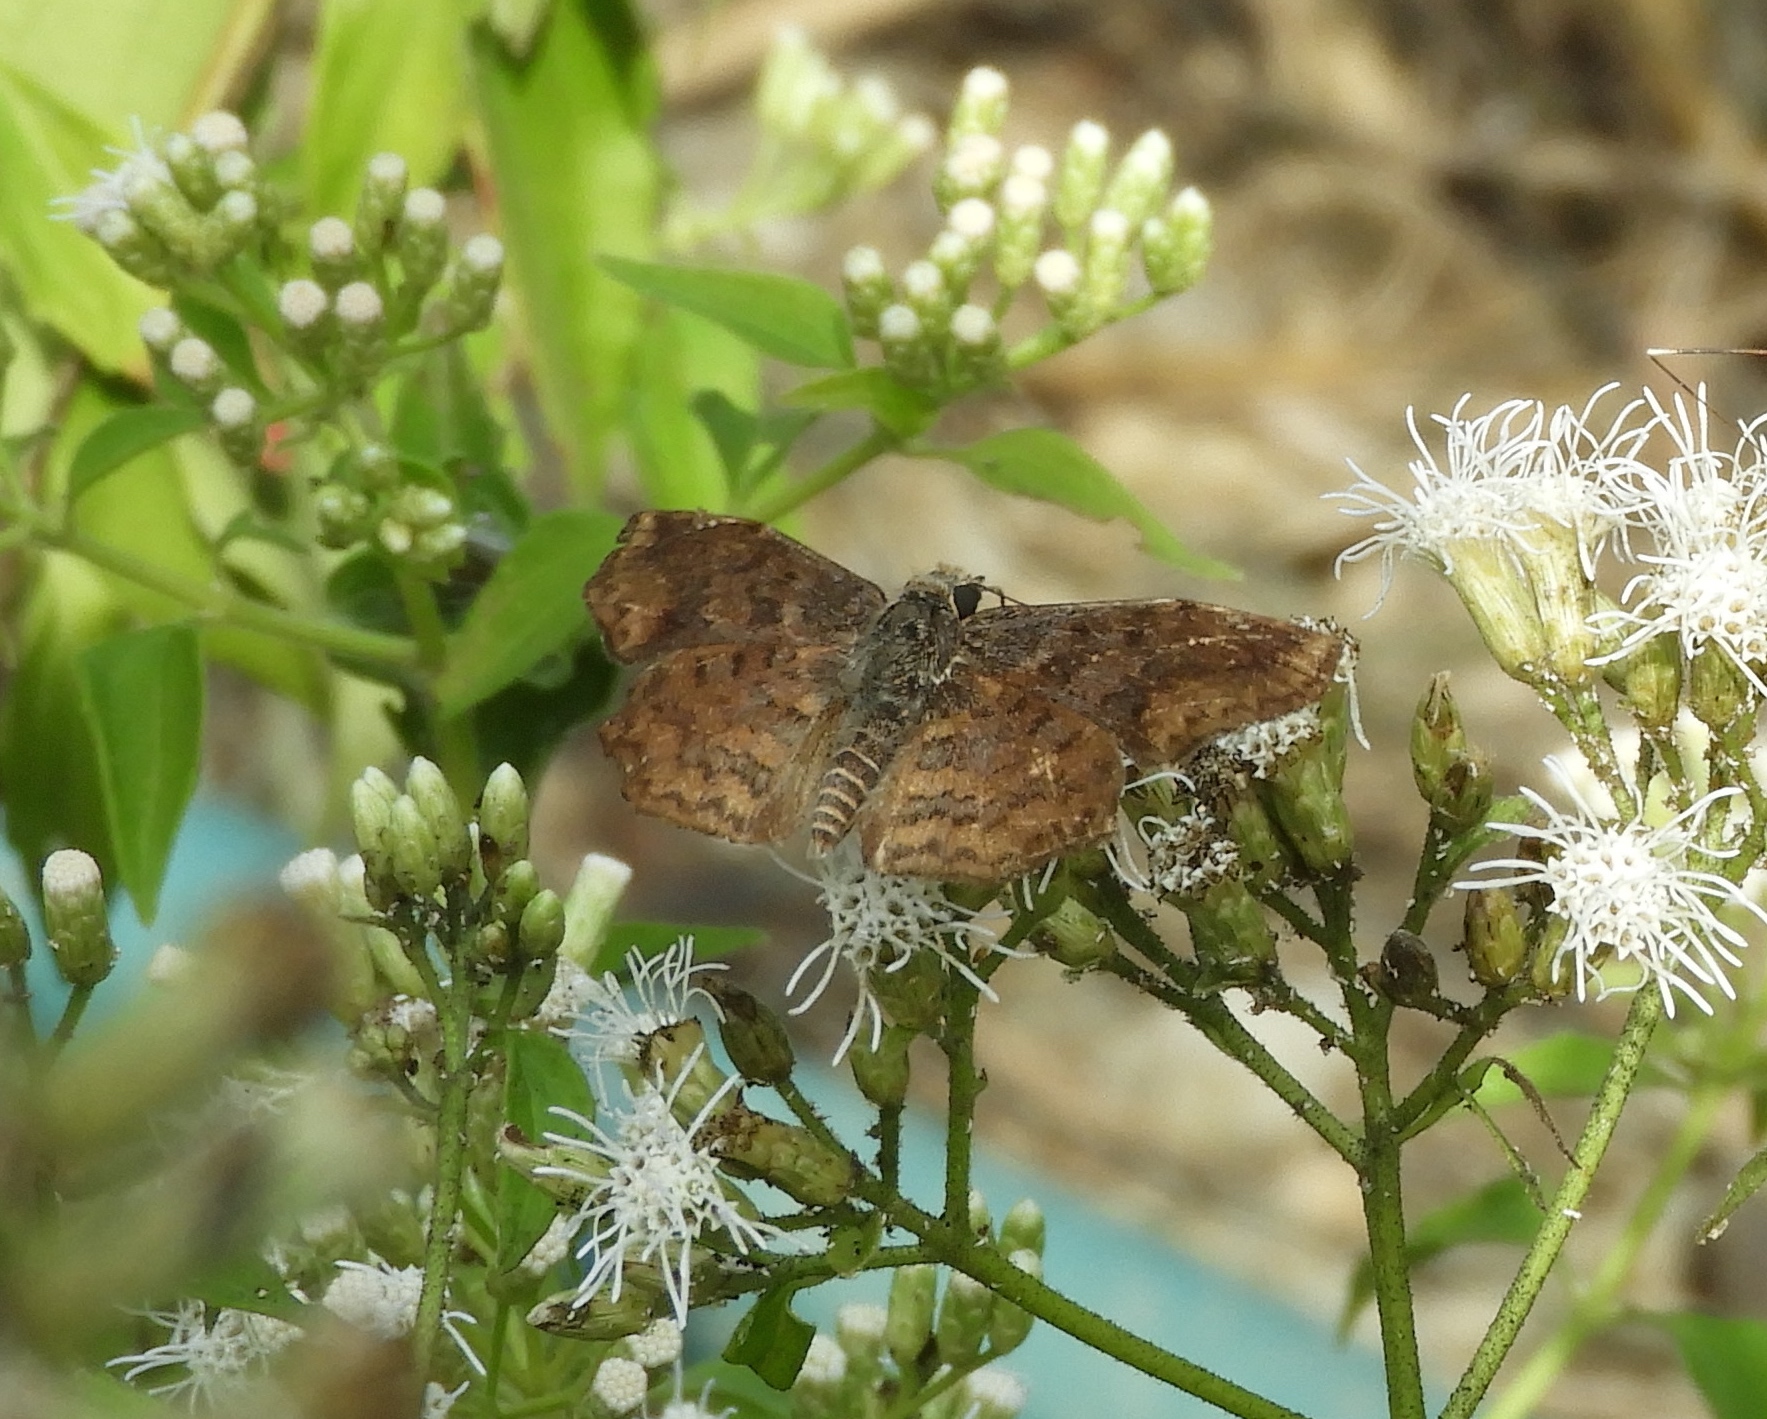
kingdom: Animalia
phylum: Arthropoda
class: Insecta
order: Lepidoptera
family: Hesperiidae
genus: Antigonus
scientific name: Antigonus erosus
